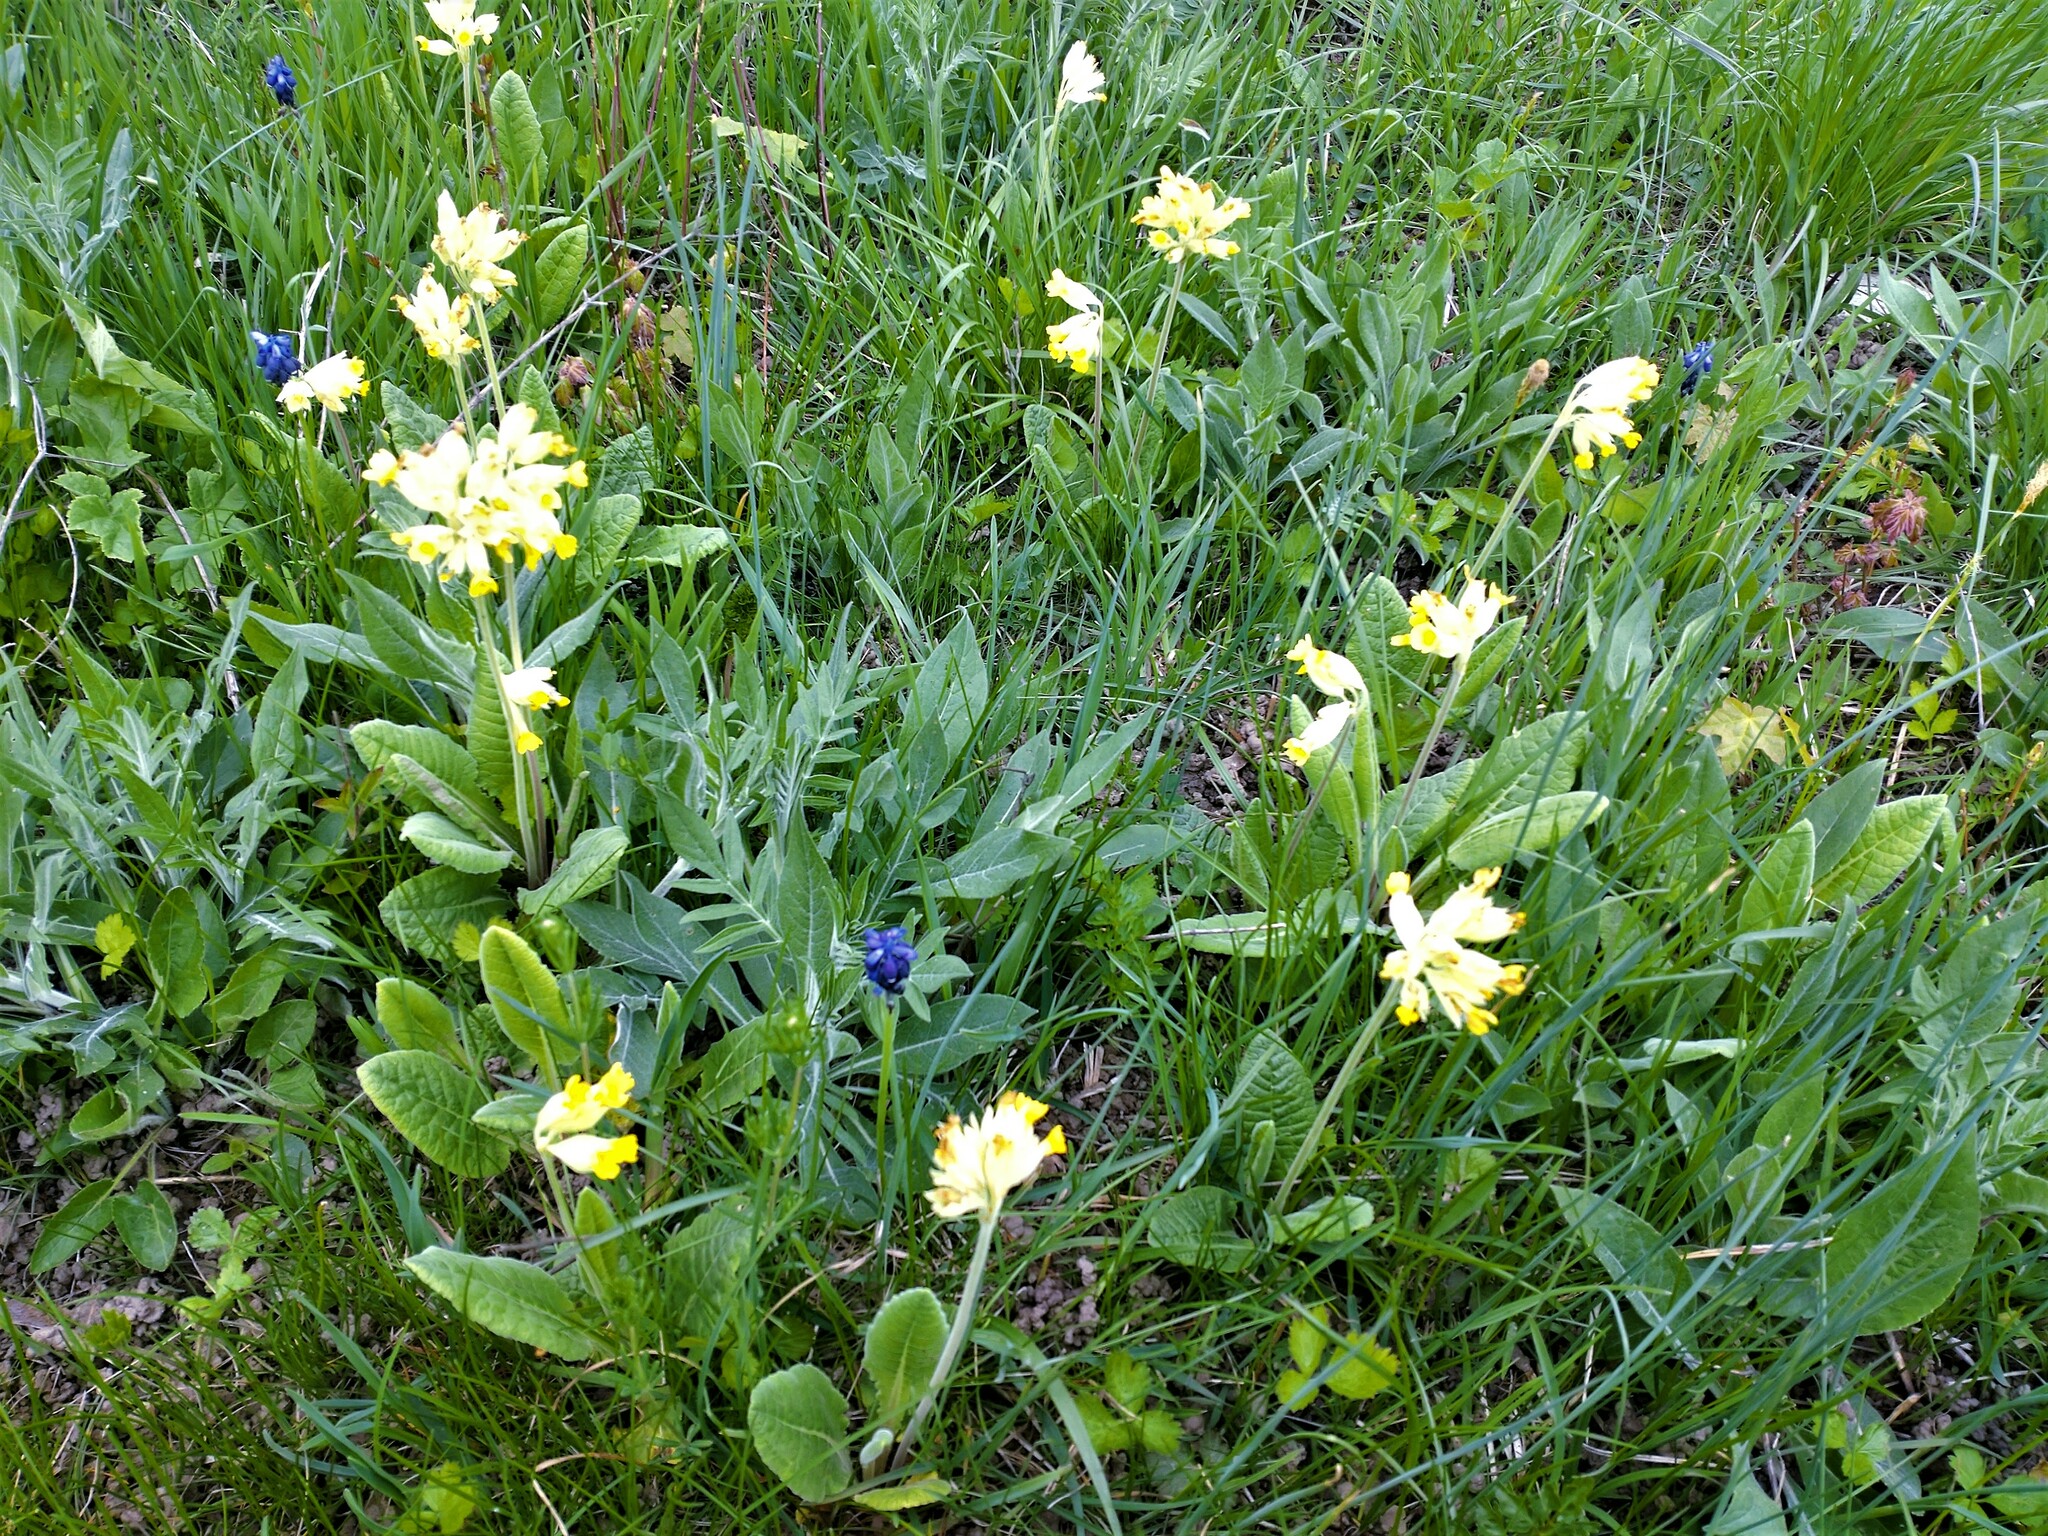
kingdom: Plantae
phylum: Tracheophyta
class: Magnoliopsida
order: Ericales
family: Primulaceae
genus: Primula
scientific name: Primula veris
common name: Cowslip
